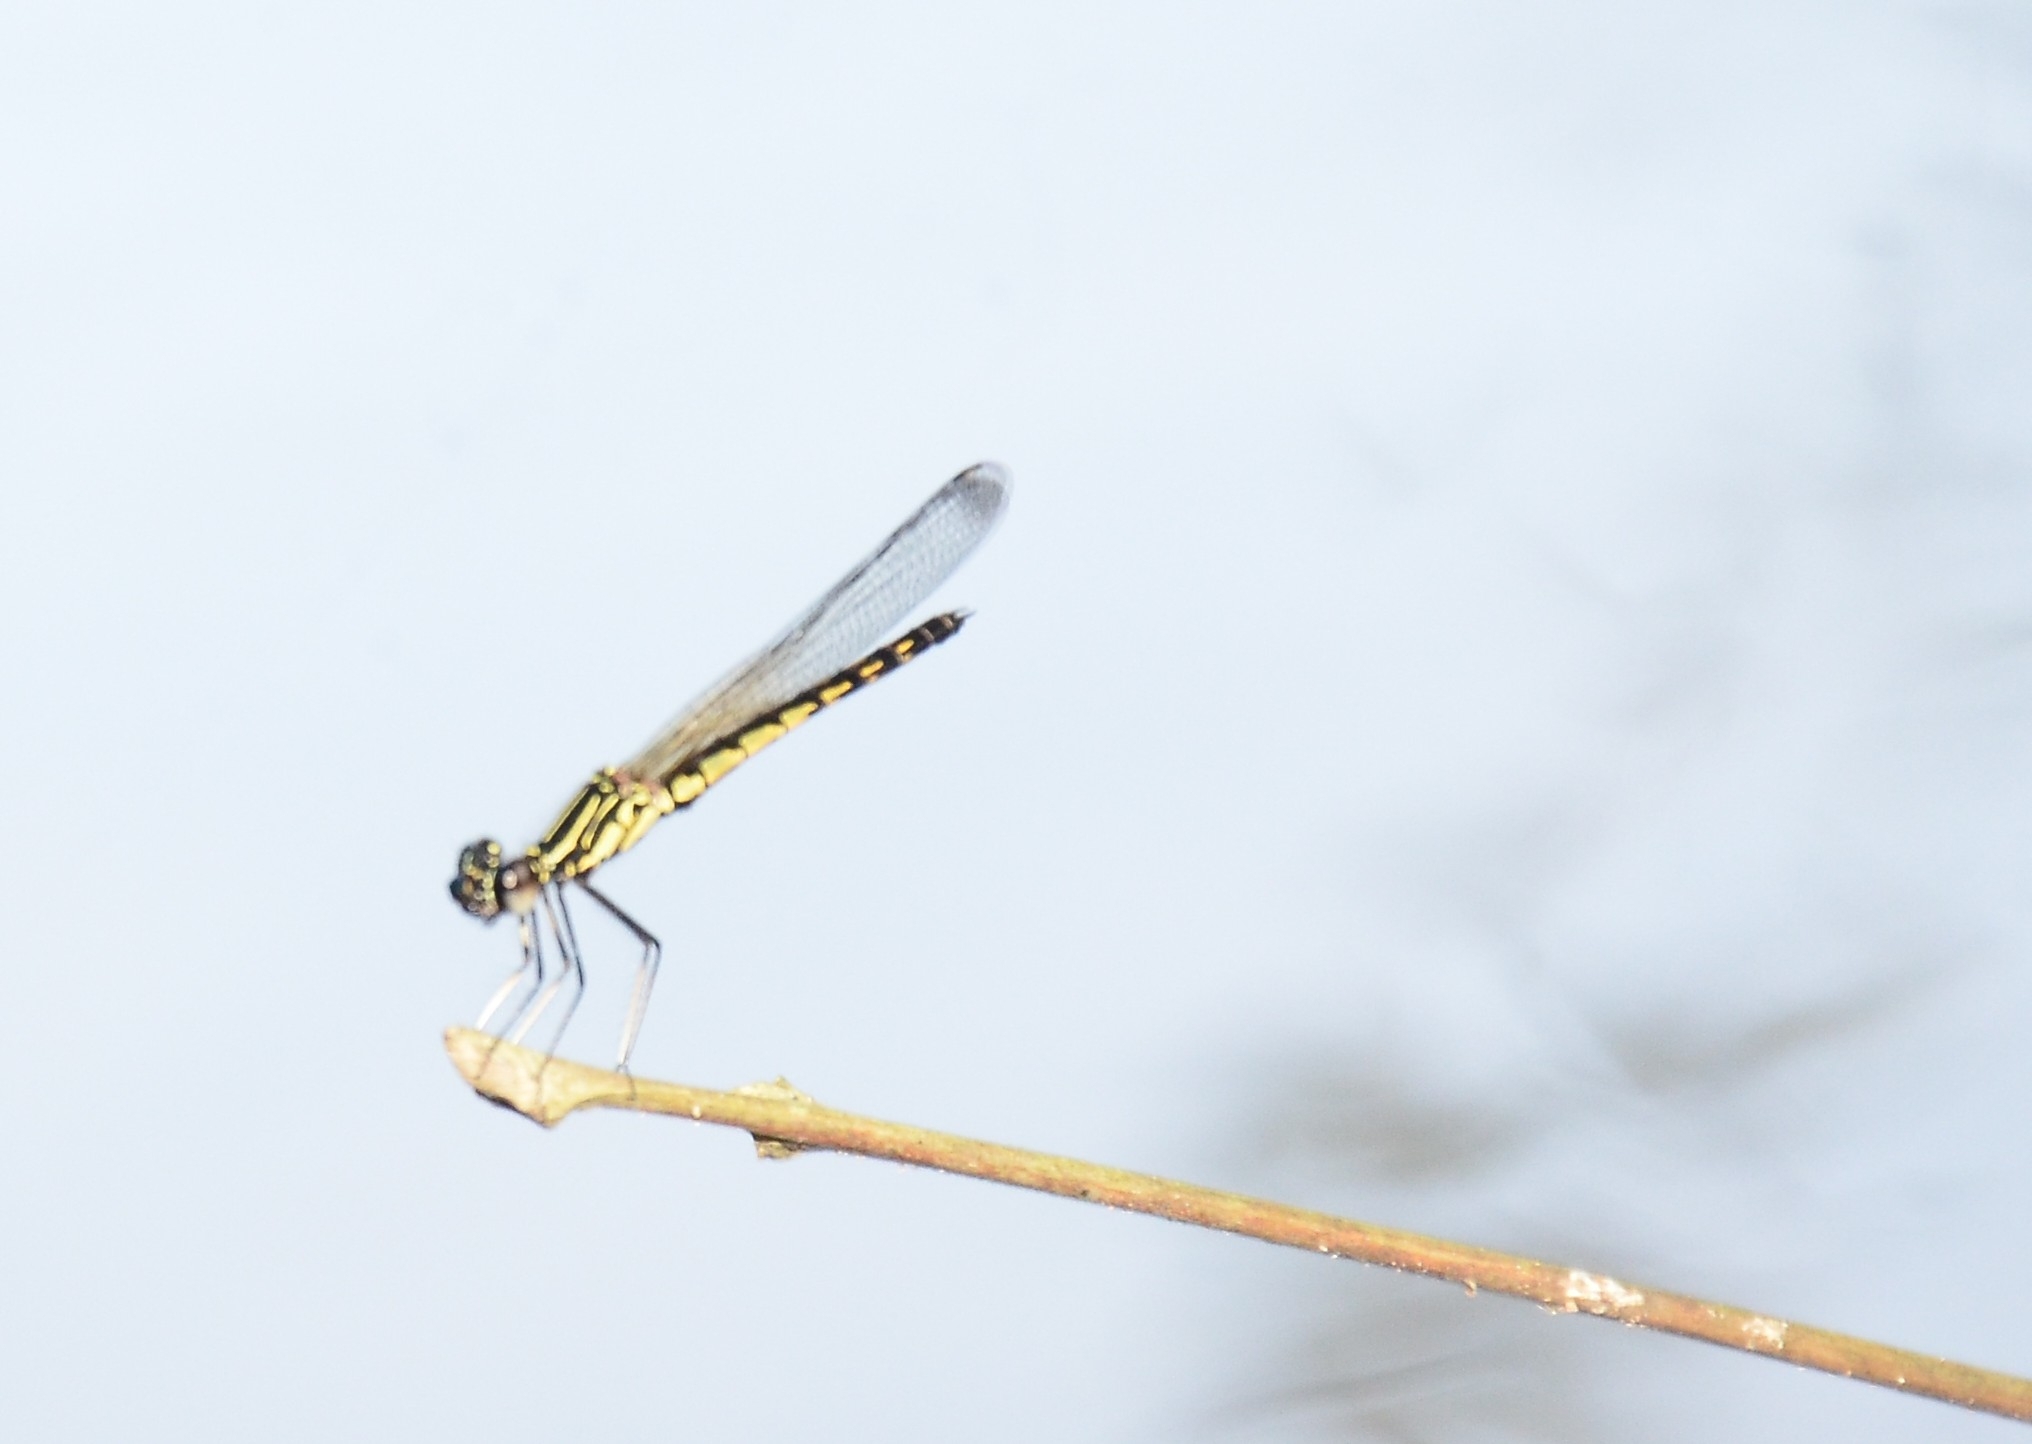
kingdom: Animalia
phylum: Arthropoda
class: Insecta
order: Odonata
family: Chlorocyphidae
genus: Libellago
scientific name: Libellago indica
